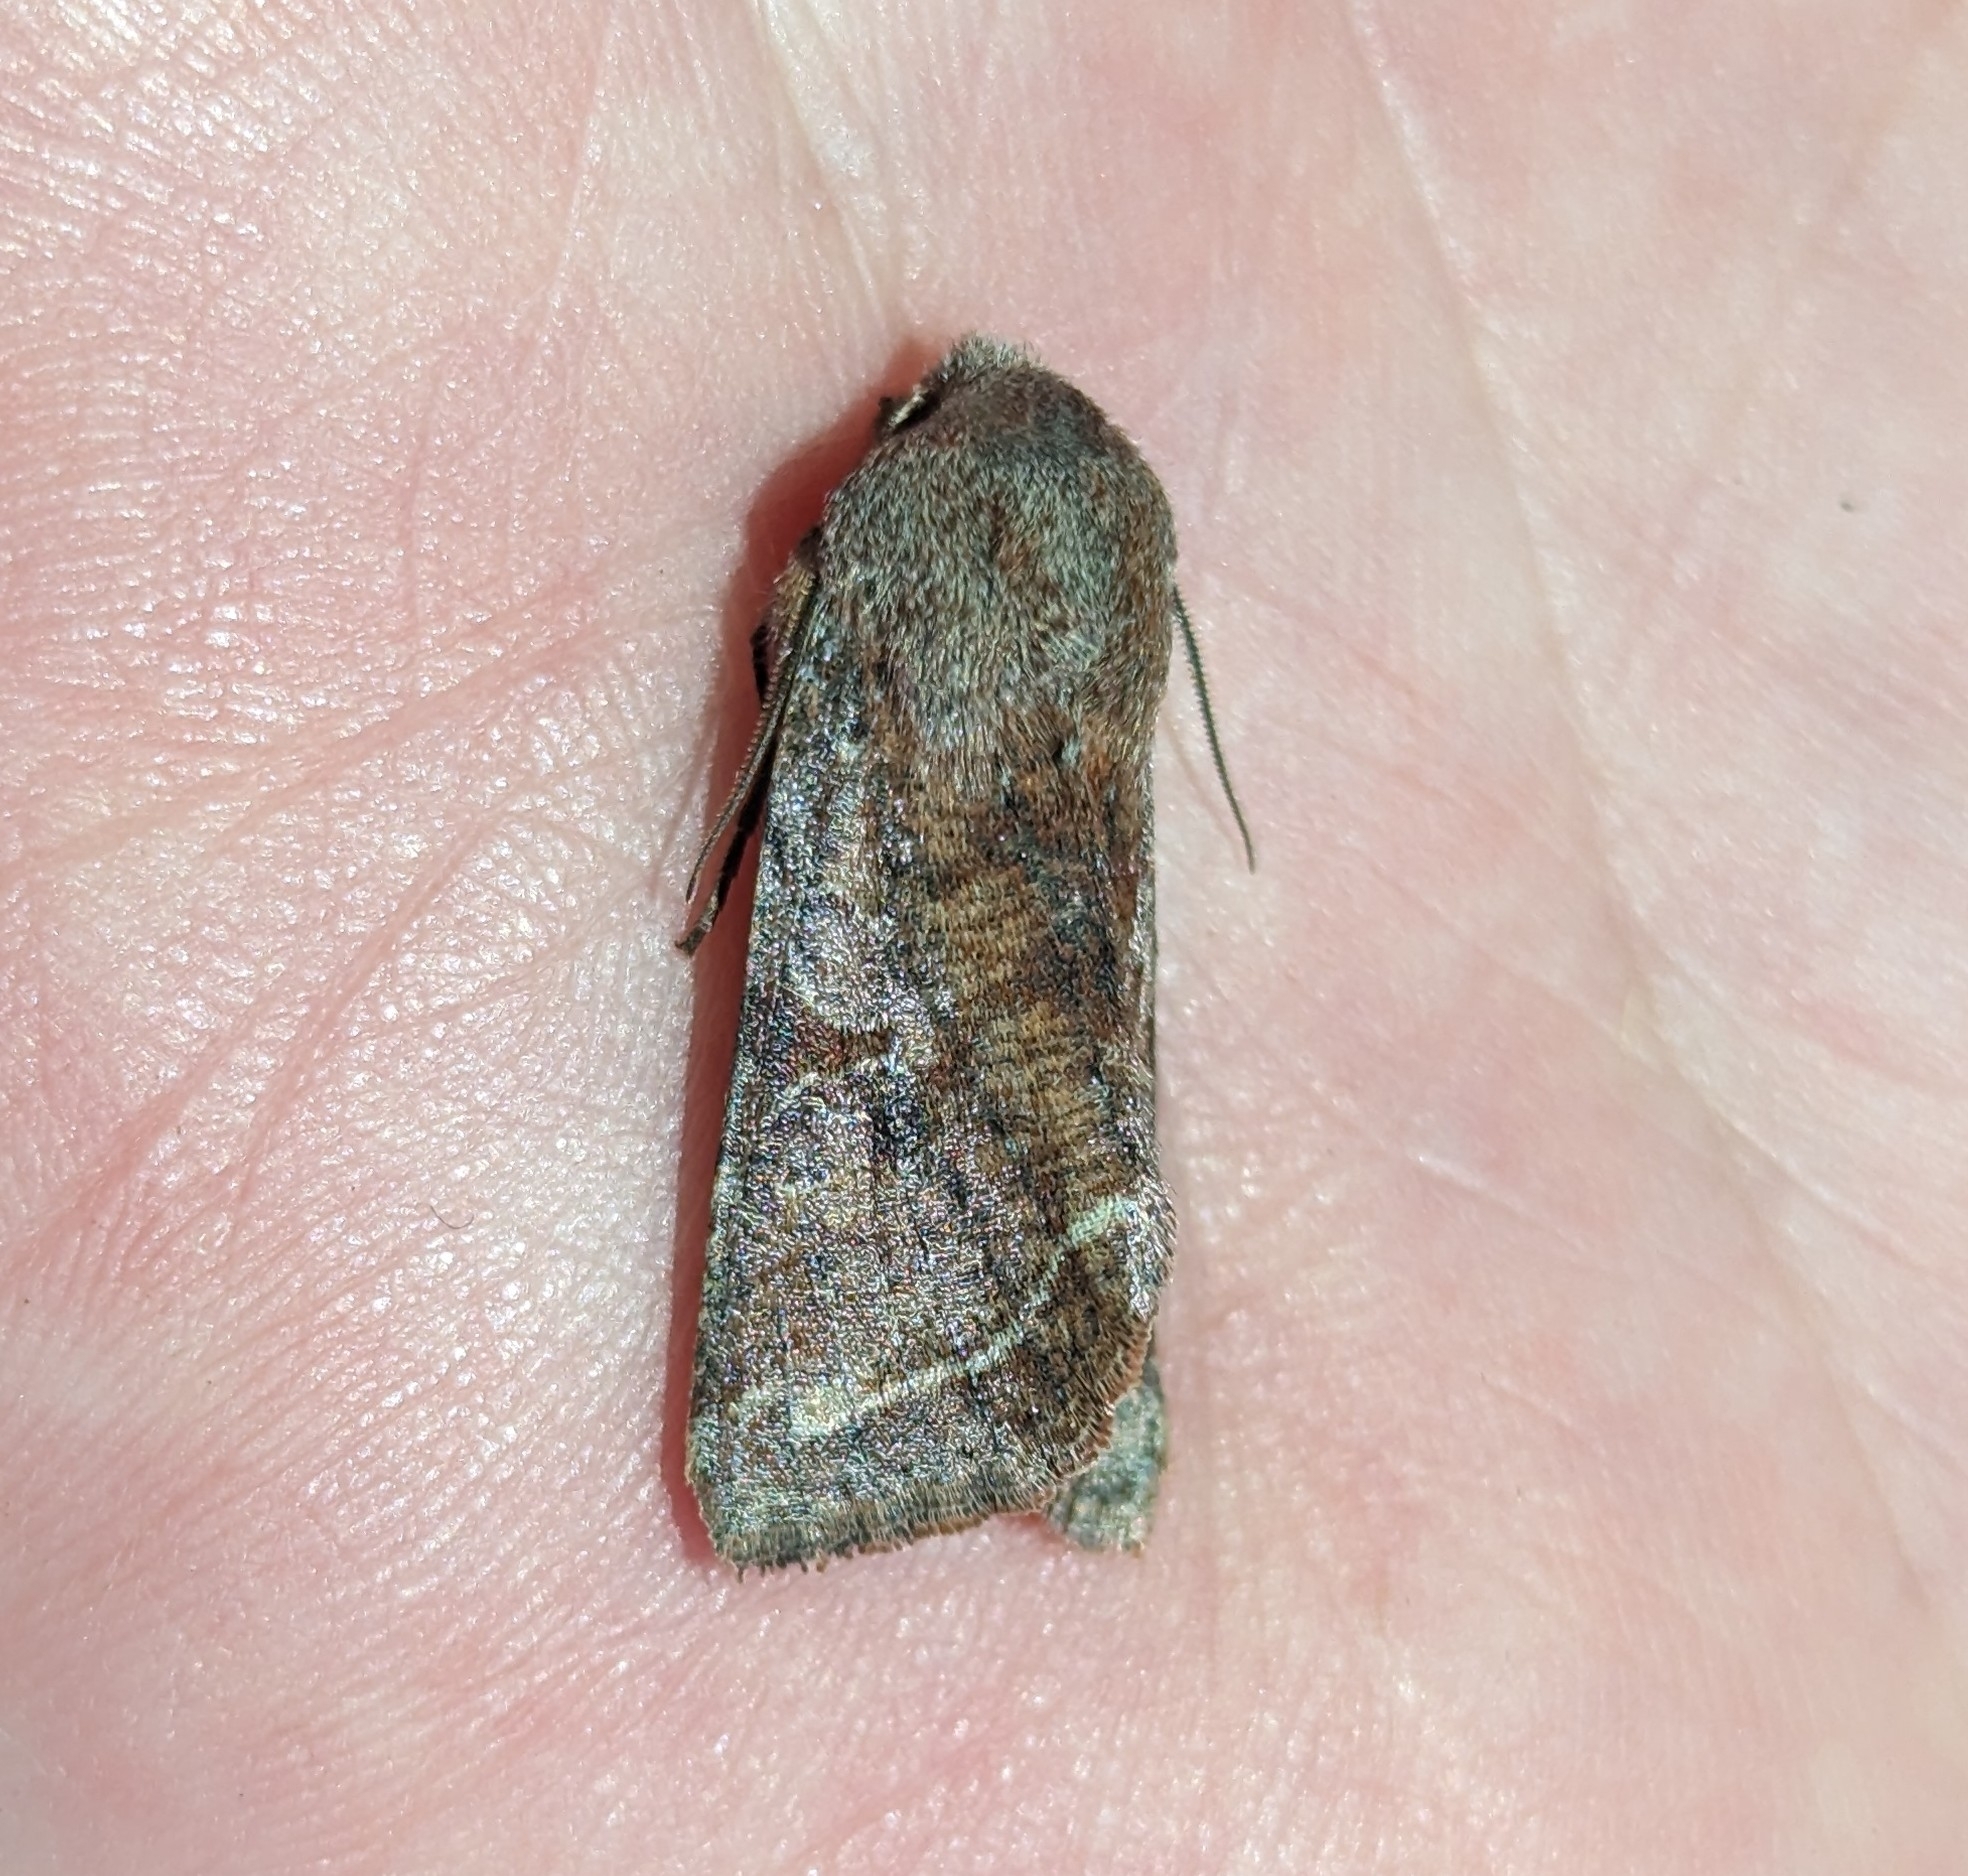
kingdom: Animalia
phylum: Arthropoda
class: Insecta
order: Lepidoptera
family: Noctuidae
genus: Orthosia
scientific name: Orthosia hibisci
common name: Green fruitworm
